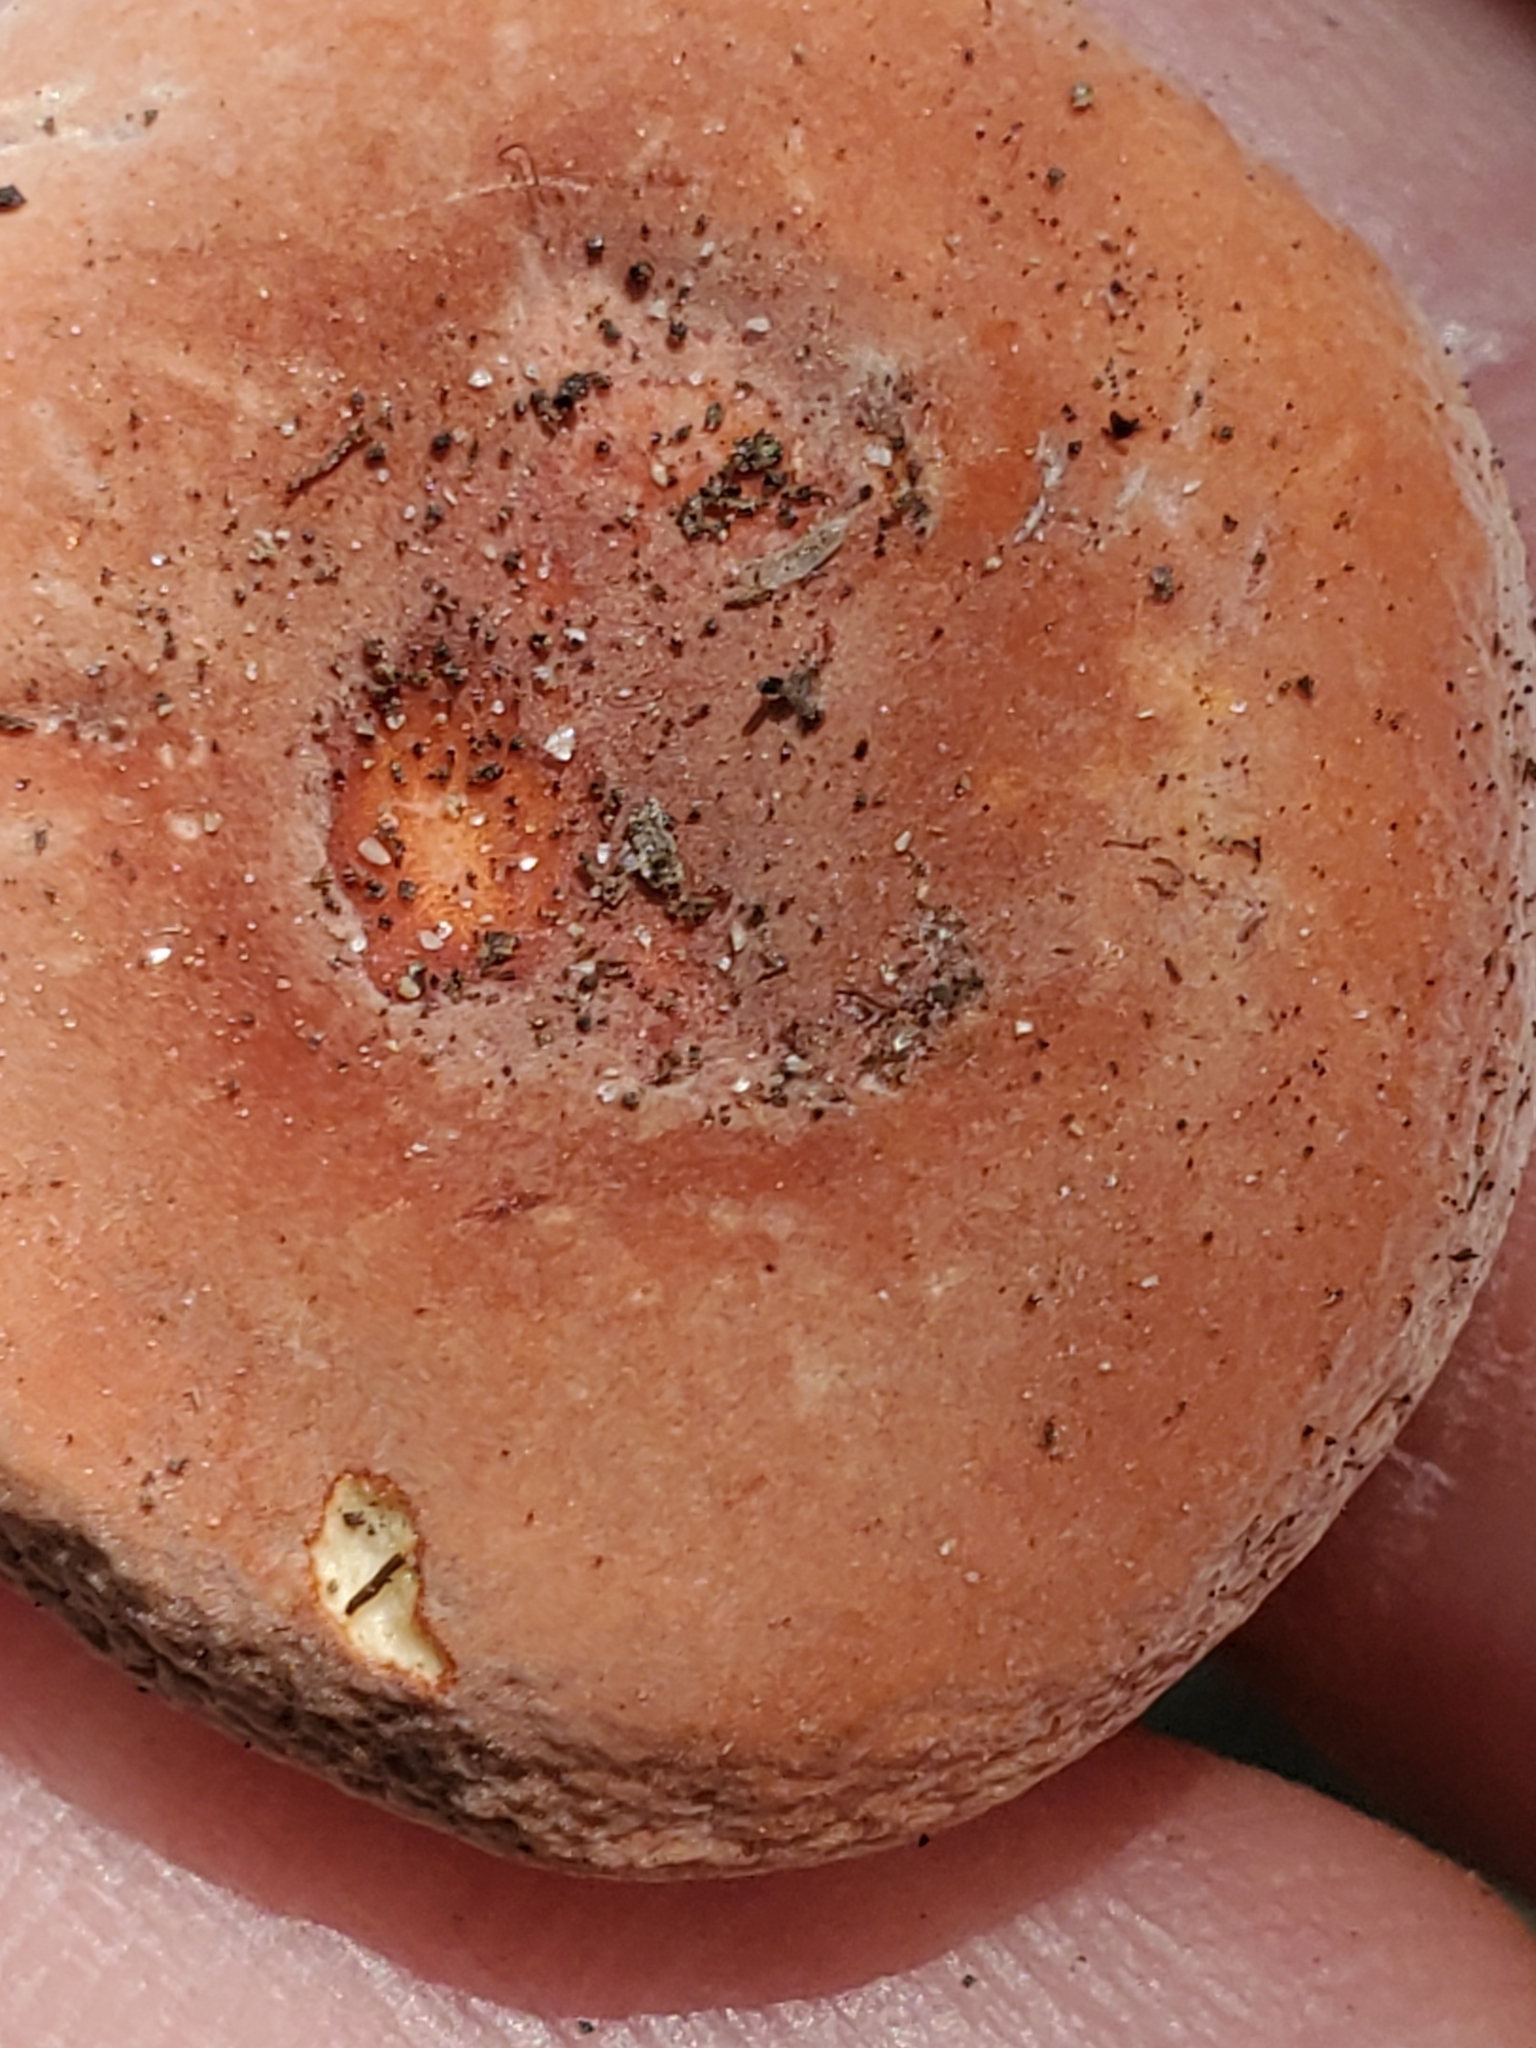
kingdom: Fungi
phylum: Basidiomycota
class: Agaricomycetes
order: Russulales
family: Russulaceae
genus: Lactarius
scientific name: Lactarius hygrophoroides
